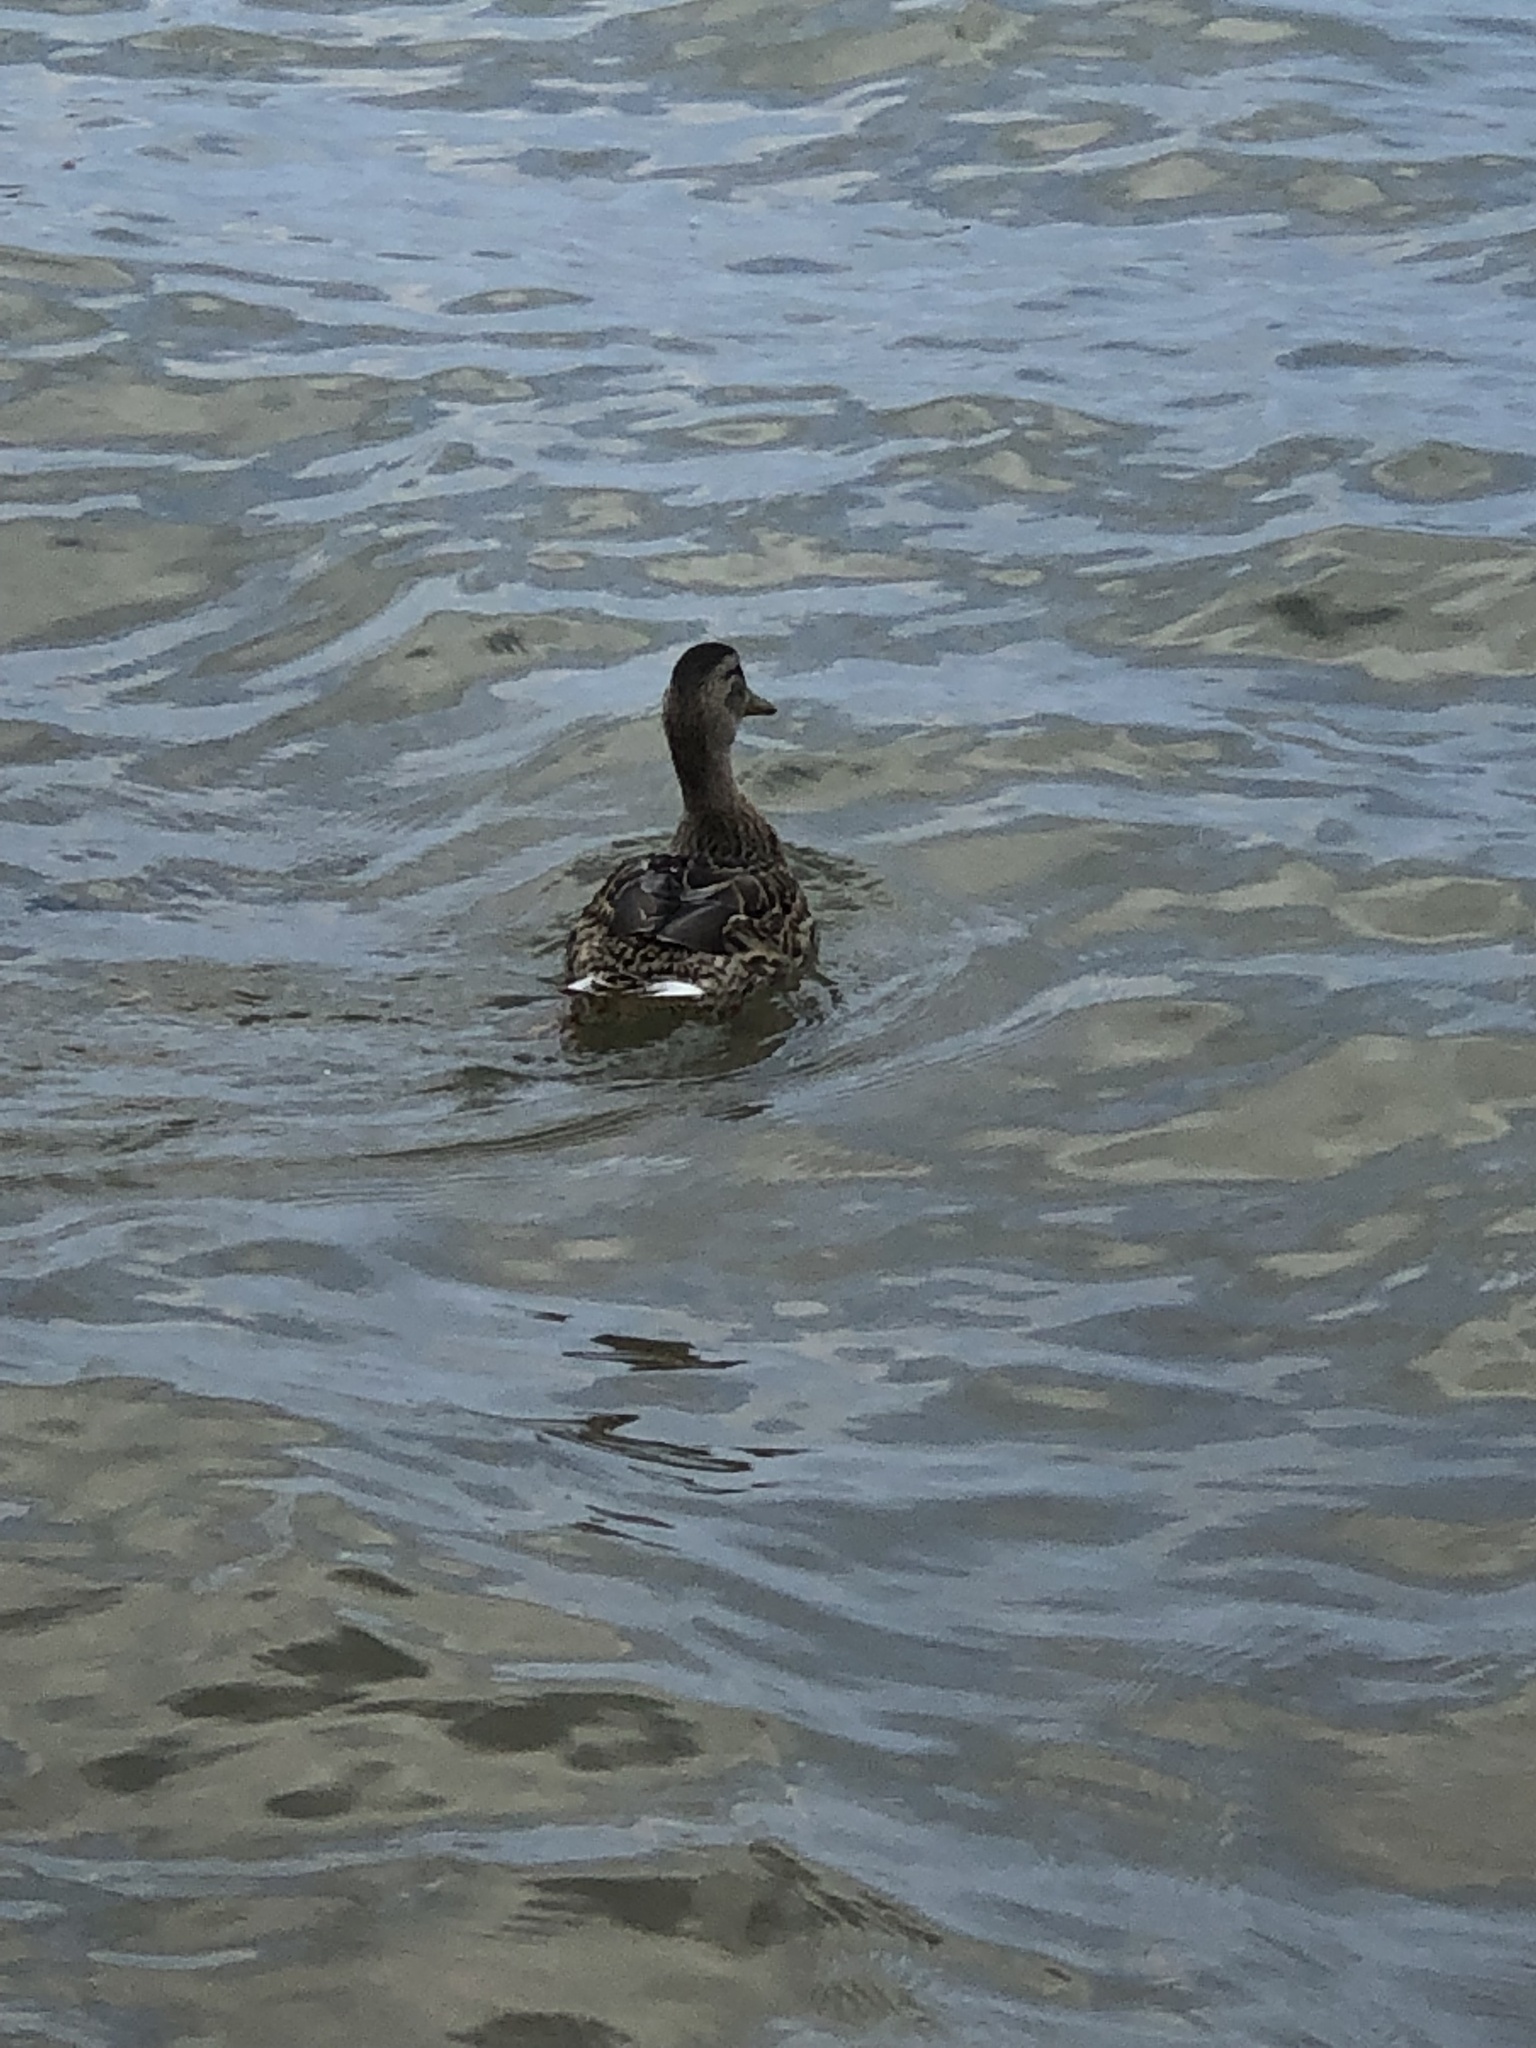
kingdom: Animalia
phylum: Chordata
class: Aves
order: Anseriformes
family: Anatidae
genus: Anas
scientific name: Anas platyrhynchos
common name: Mallard
